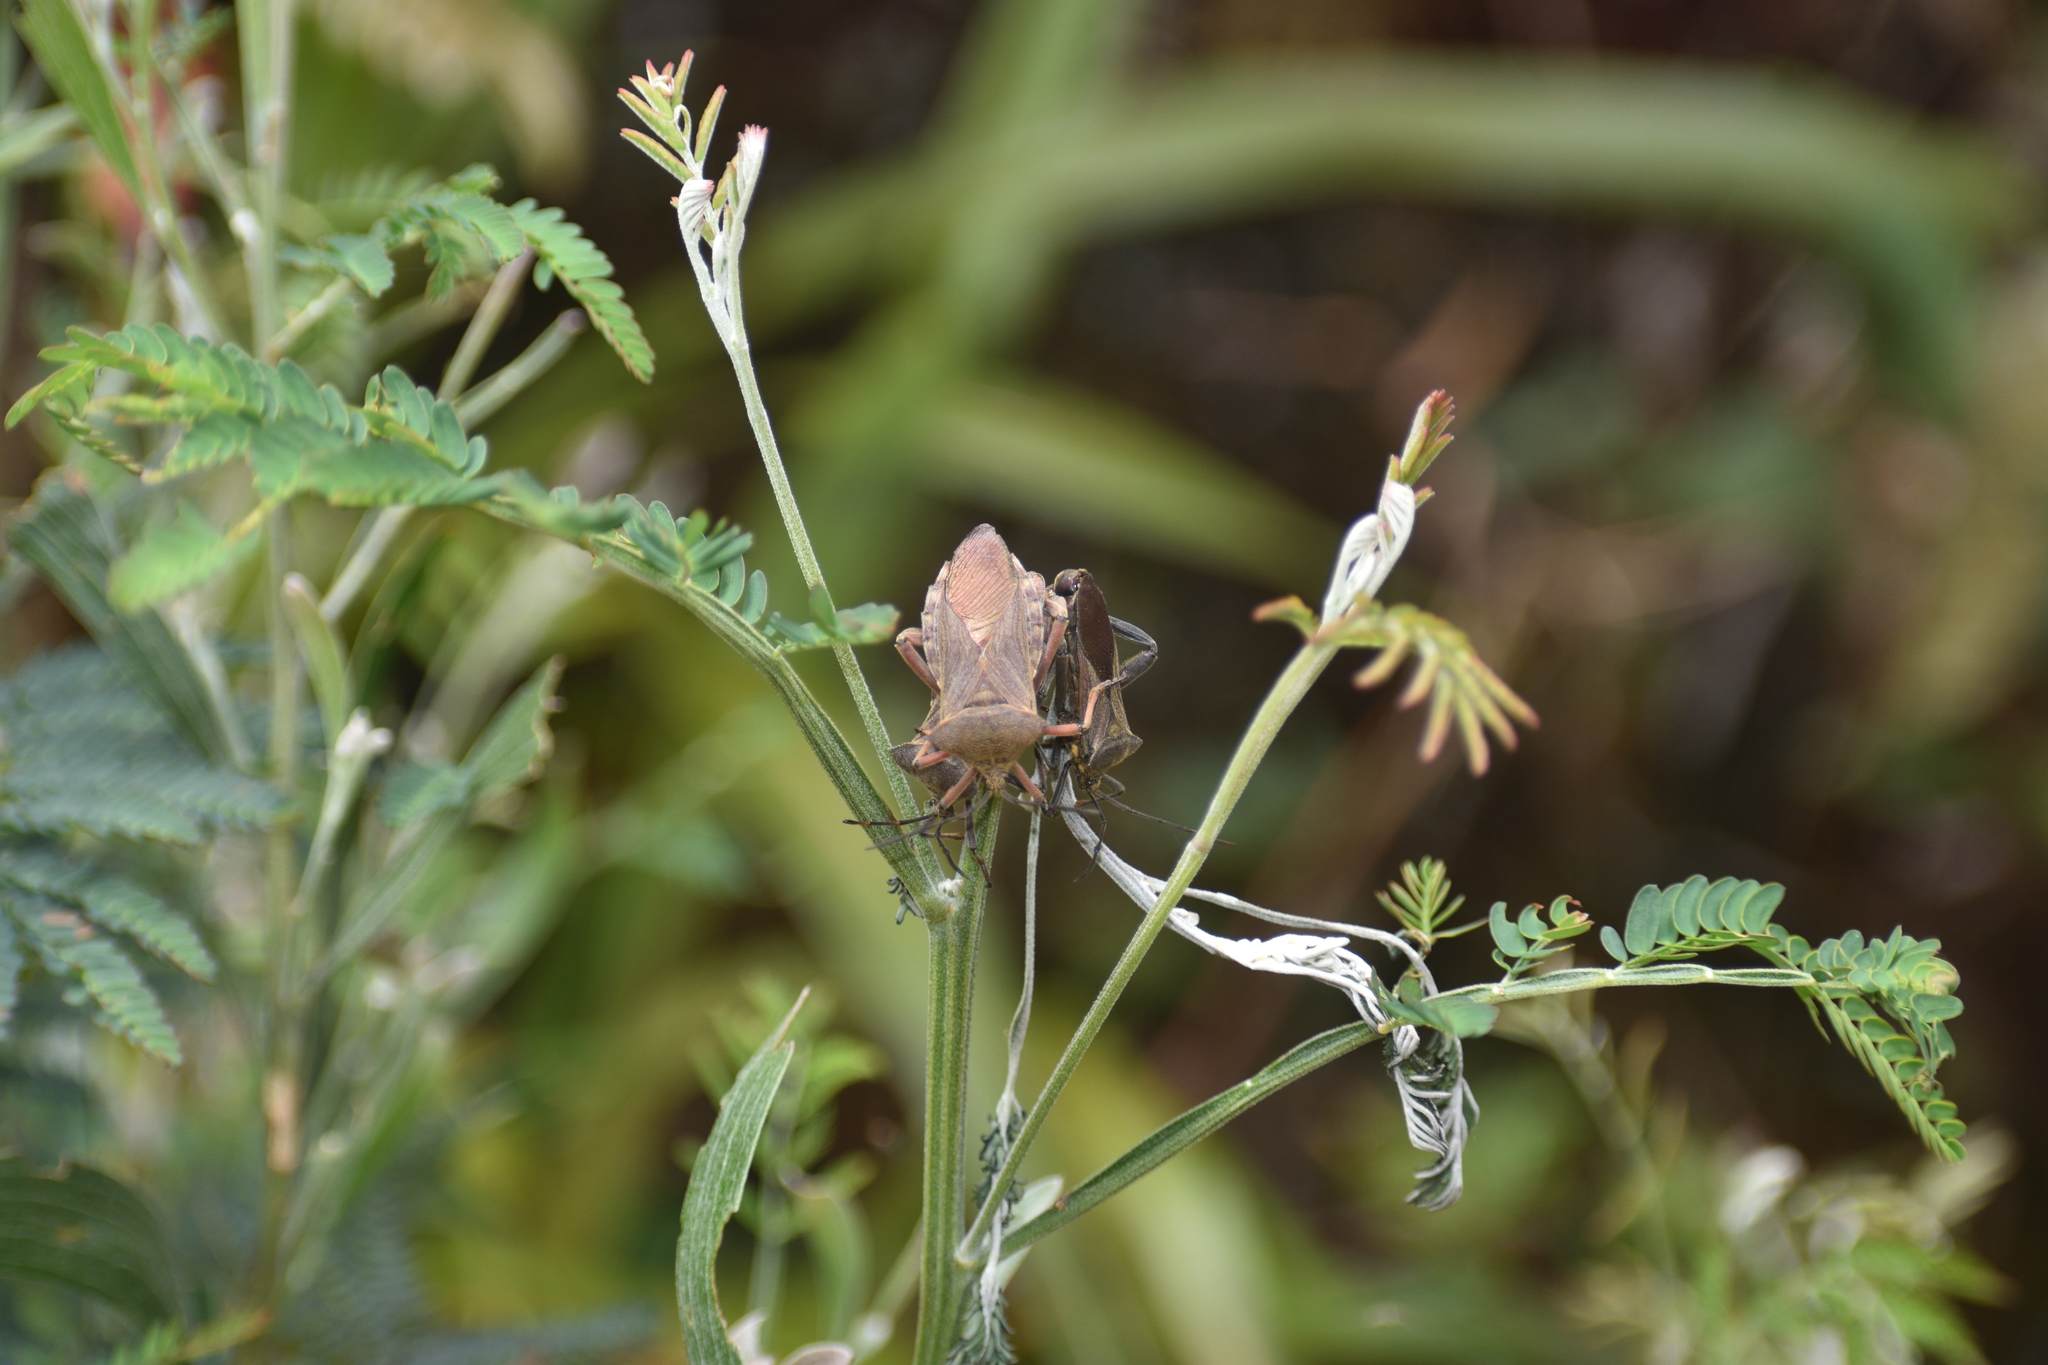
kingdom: Animalia
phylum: Arthropoda
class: Insecta
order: Hemiptera
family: Coreidae
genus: Thasus
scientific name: Thasus heteropus
